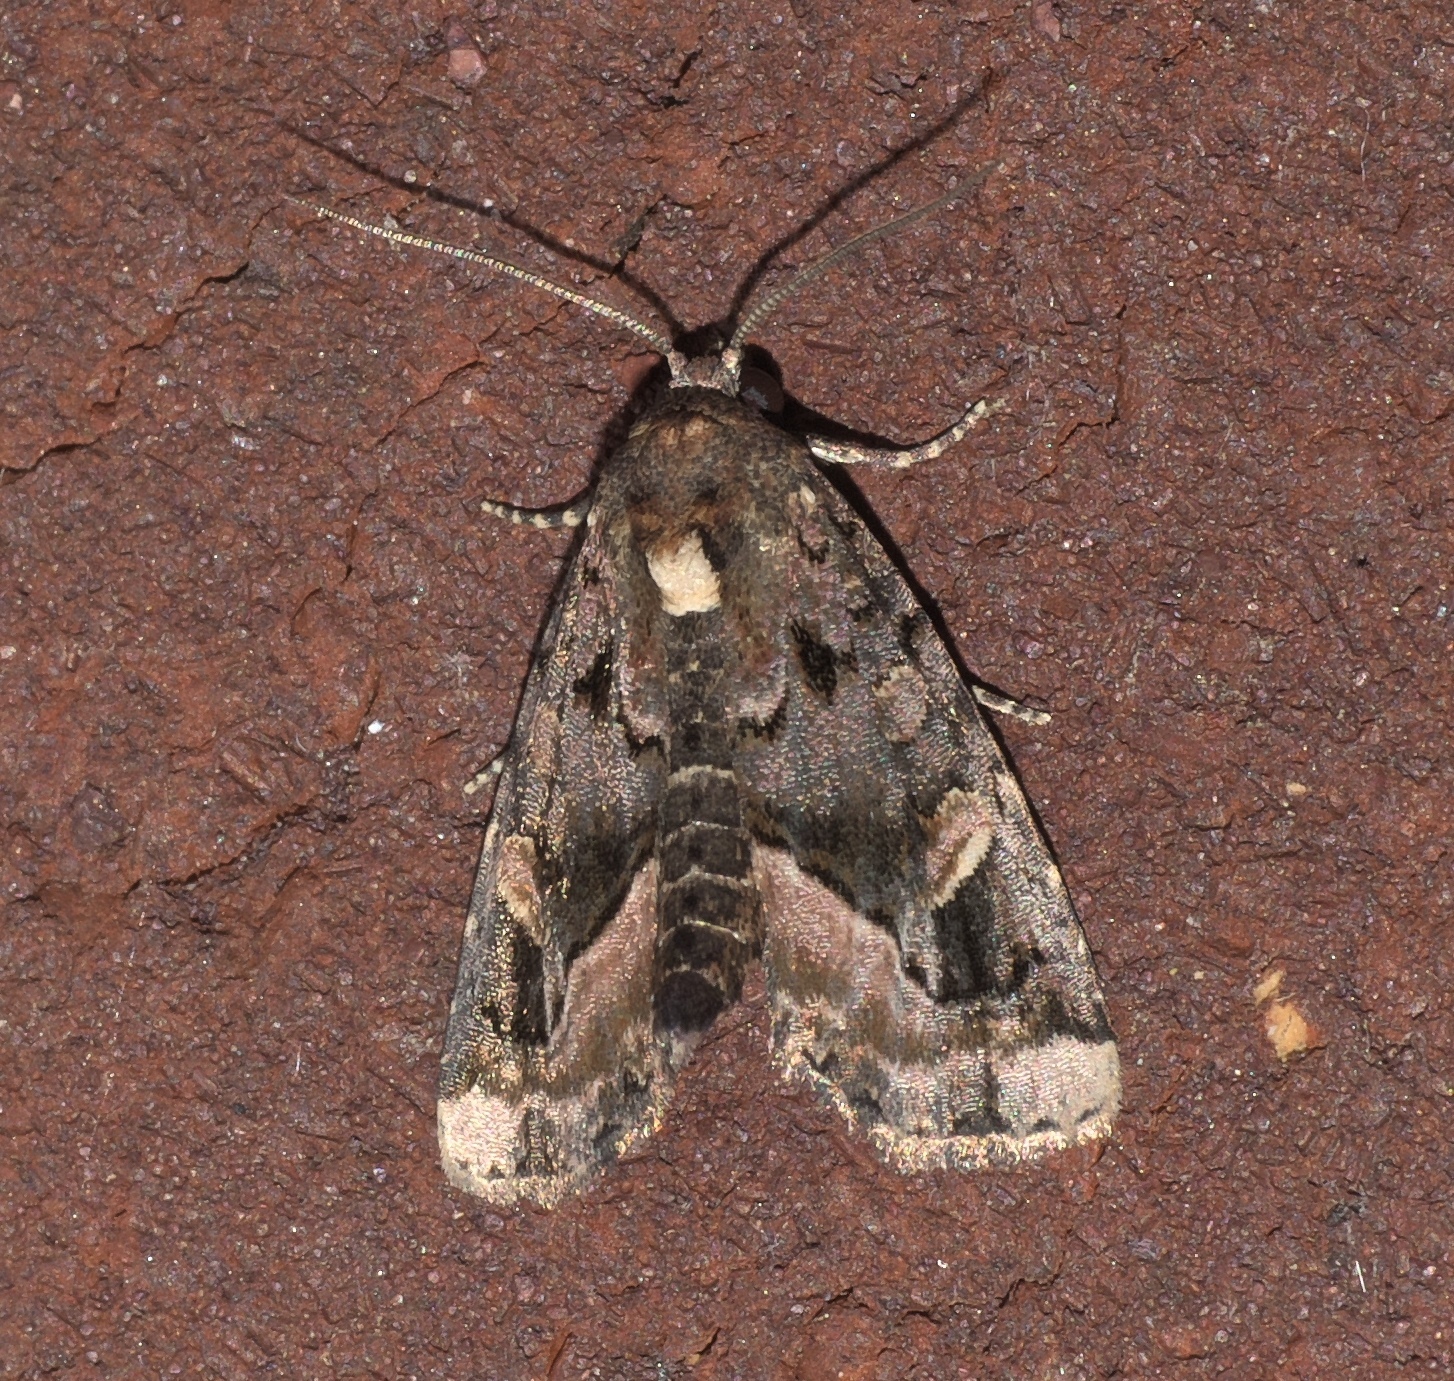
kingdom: Animalia
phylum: Arthropoda
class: Insecta
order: Lepidoptera
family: Noctuidae
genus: Homophoberia
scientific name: Homophoberia apicosa
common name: Black wedge-spot
